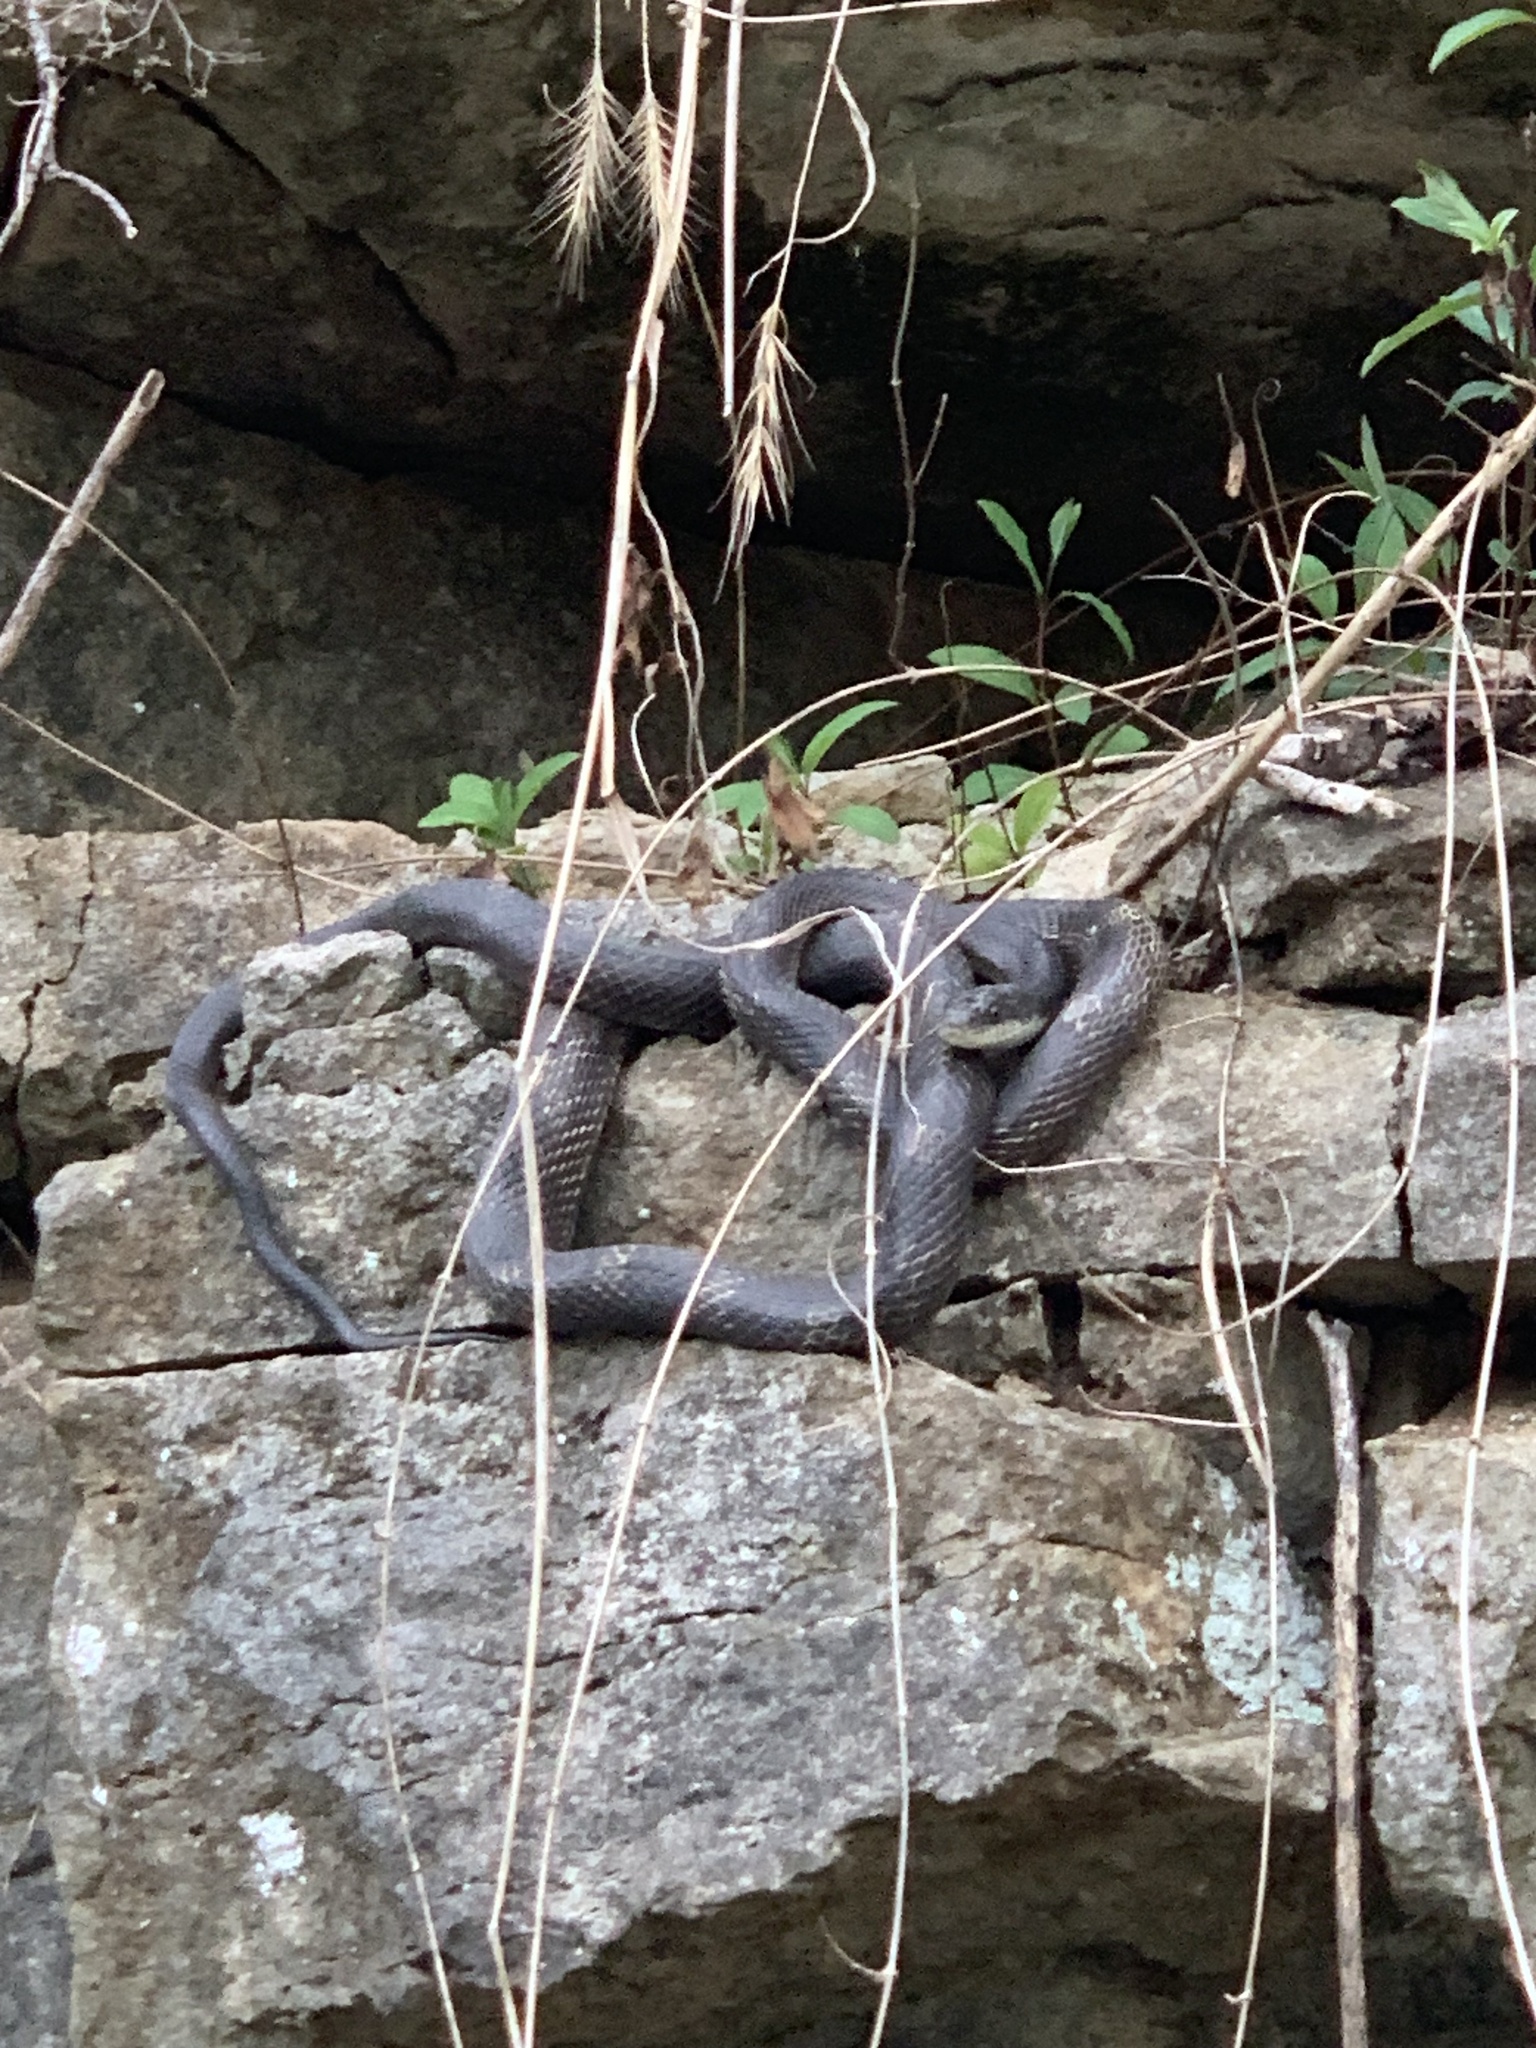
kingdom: Animalia
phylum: Chordata
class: Squamata
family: Colubridae
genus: Pantherophis
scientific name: Pantherophis spiloides
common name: Gray rat snake
